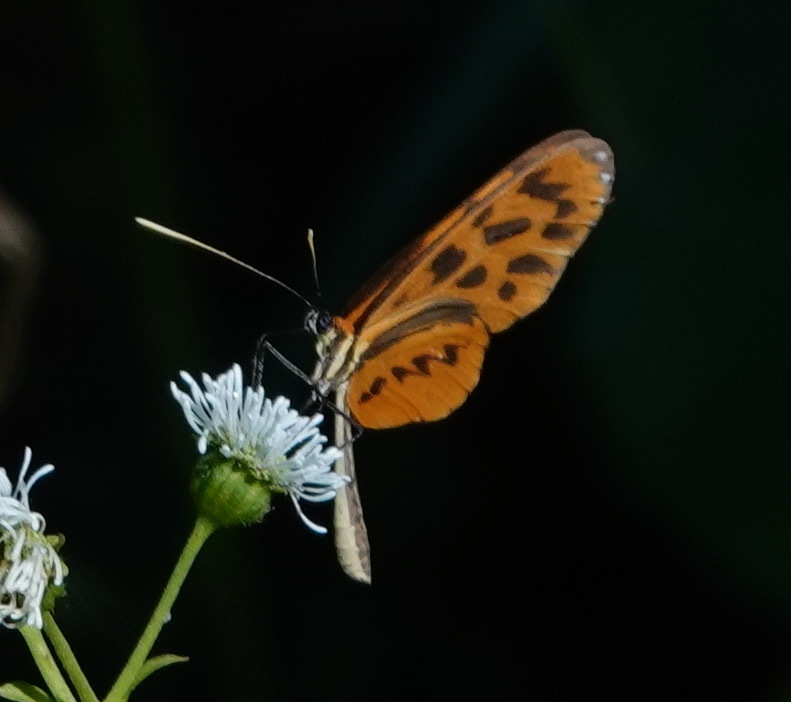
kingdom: Animalia
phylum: Arthropoda
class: Insecta
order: Lepidoptera
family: Nymphalidae
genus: Forbestra
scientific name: Forbestra olivencia
